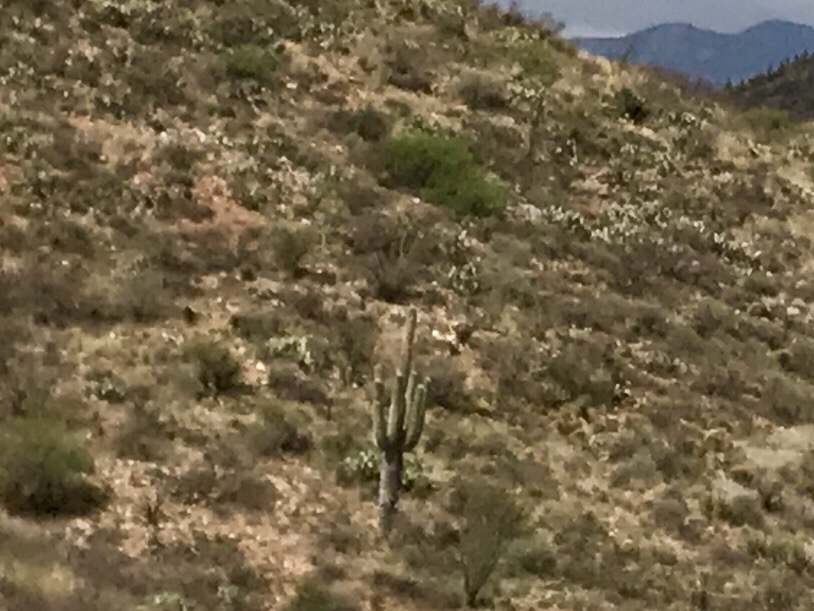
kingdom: Plantae
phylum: Tracheophyta
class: Magnoliopsida
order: Caryophyllales
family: Cactaceae
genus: Carnegiea
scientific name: Carnegiea gigantea
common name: Saguaro
